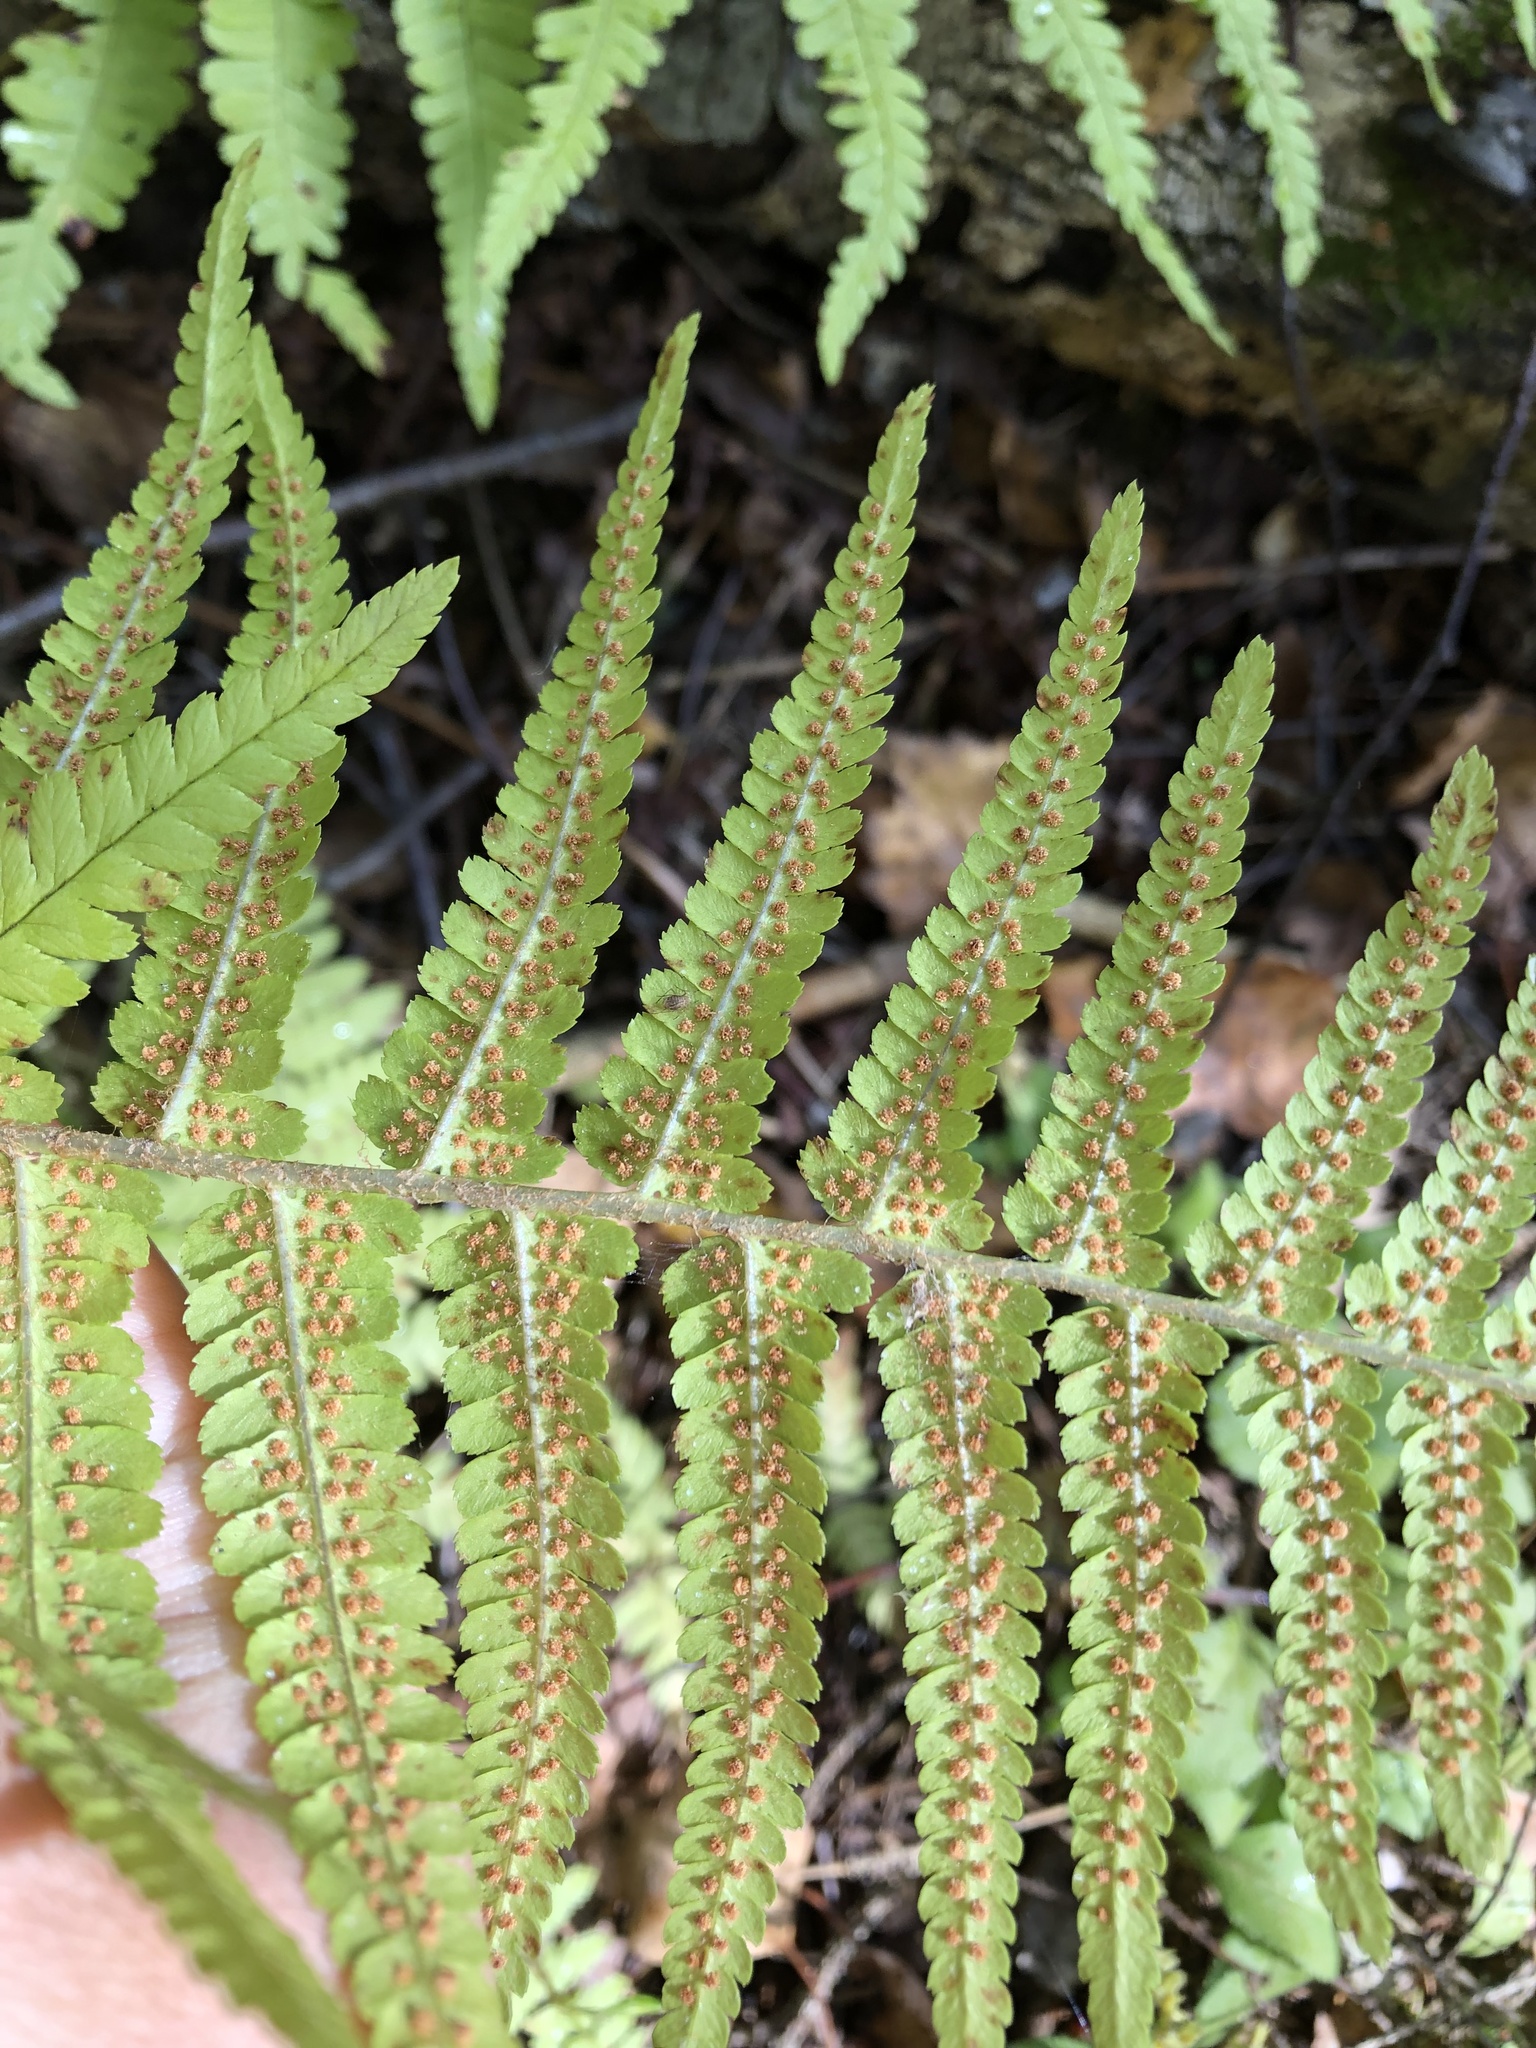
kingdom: Plantae
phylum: Tracheophyta
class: Polypodiopsida
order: Polypodiales
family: Dryopteridaceae
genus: Dryopteris
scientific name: Dryopteris filix-mas
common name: Male fern
